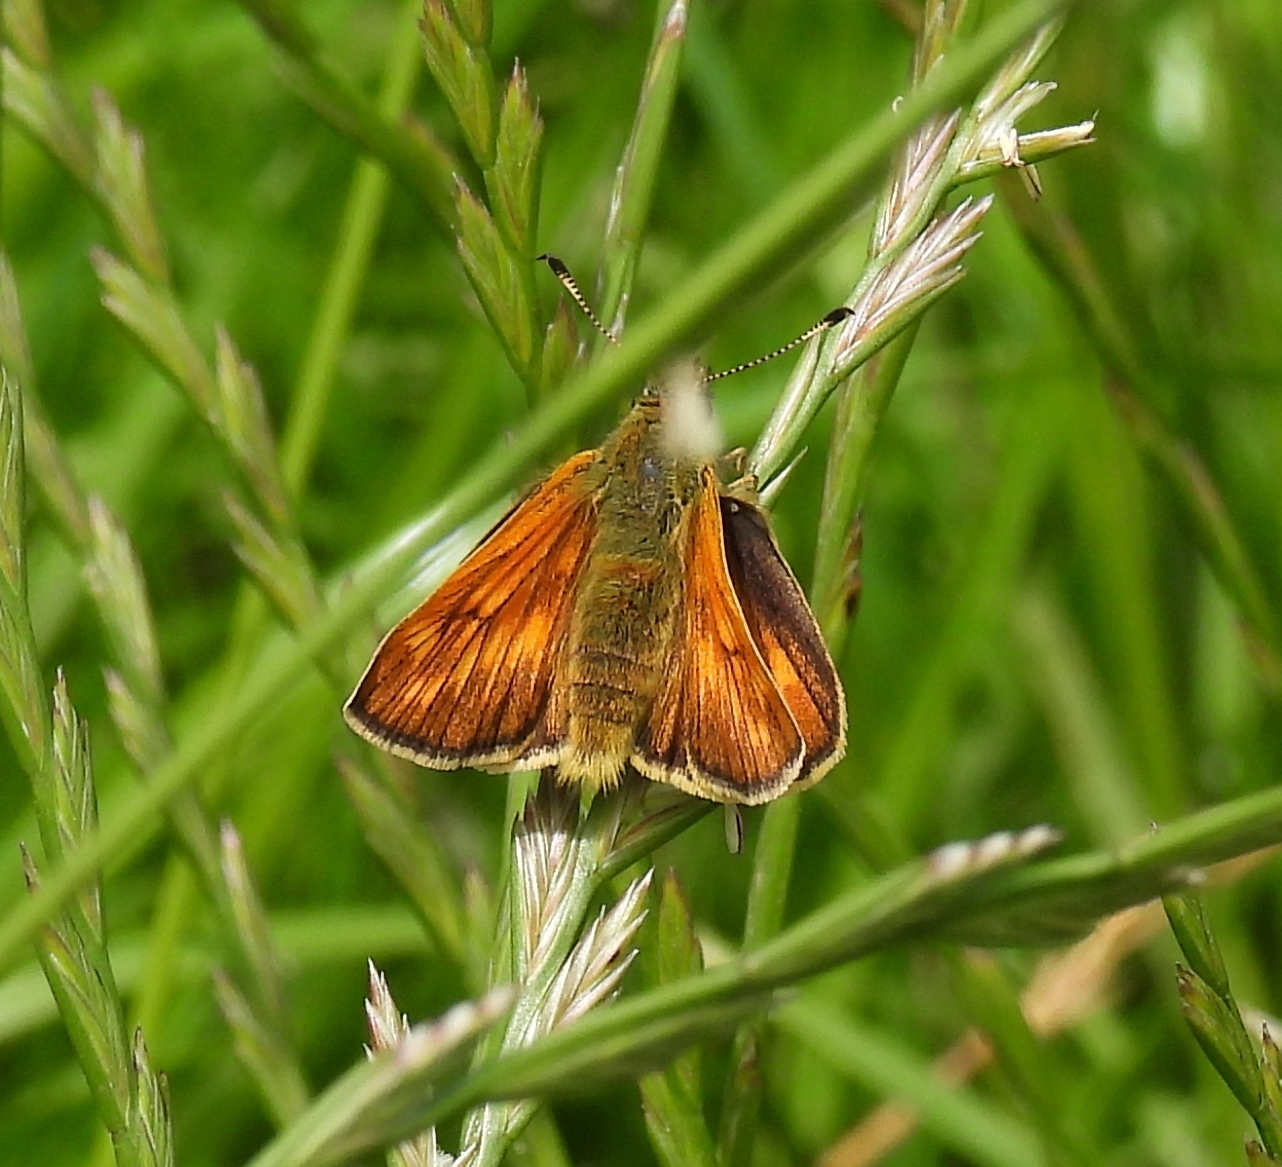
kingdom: Animalia
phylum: Arthropoda
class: Insecta
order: Lepidoptera
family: Hesperiidae
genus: Ochlodes
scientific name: Ochlodes venata
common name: Large skipper
